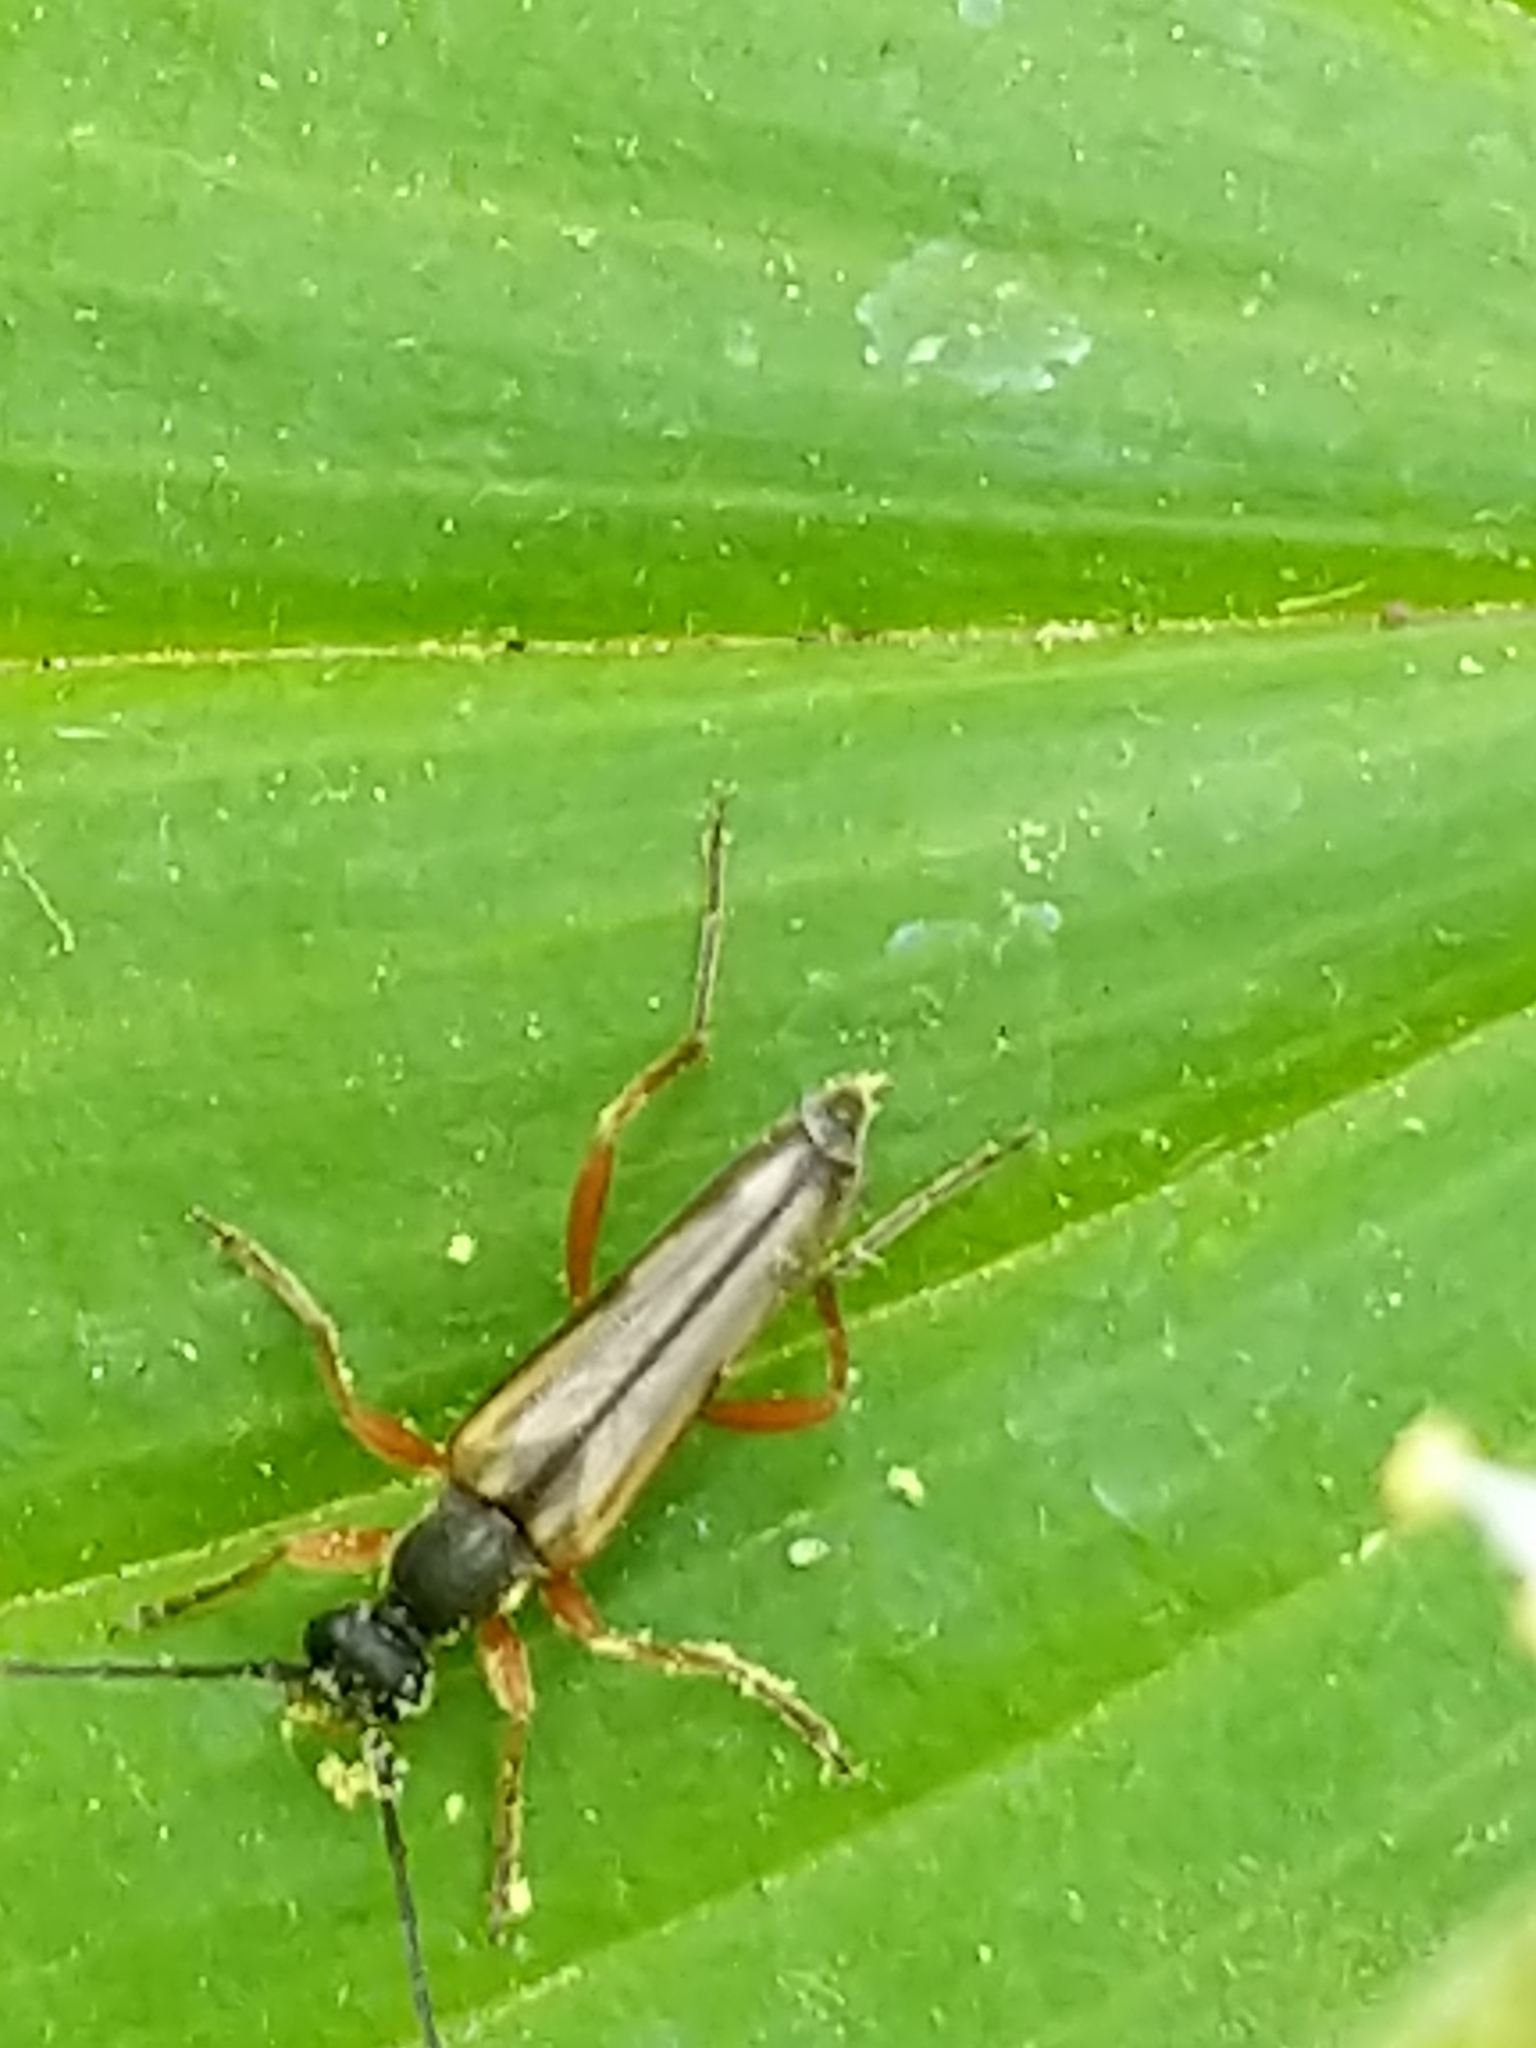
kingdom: Animalia
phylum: Arthropoda
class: Insecta
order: Coleoptera
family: Cerambycidae
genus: Analeptura
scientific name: Analeptura lineola
